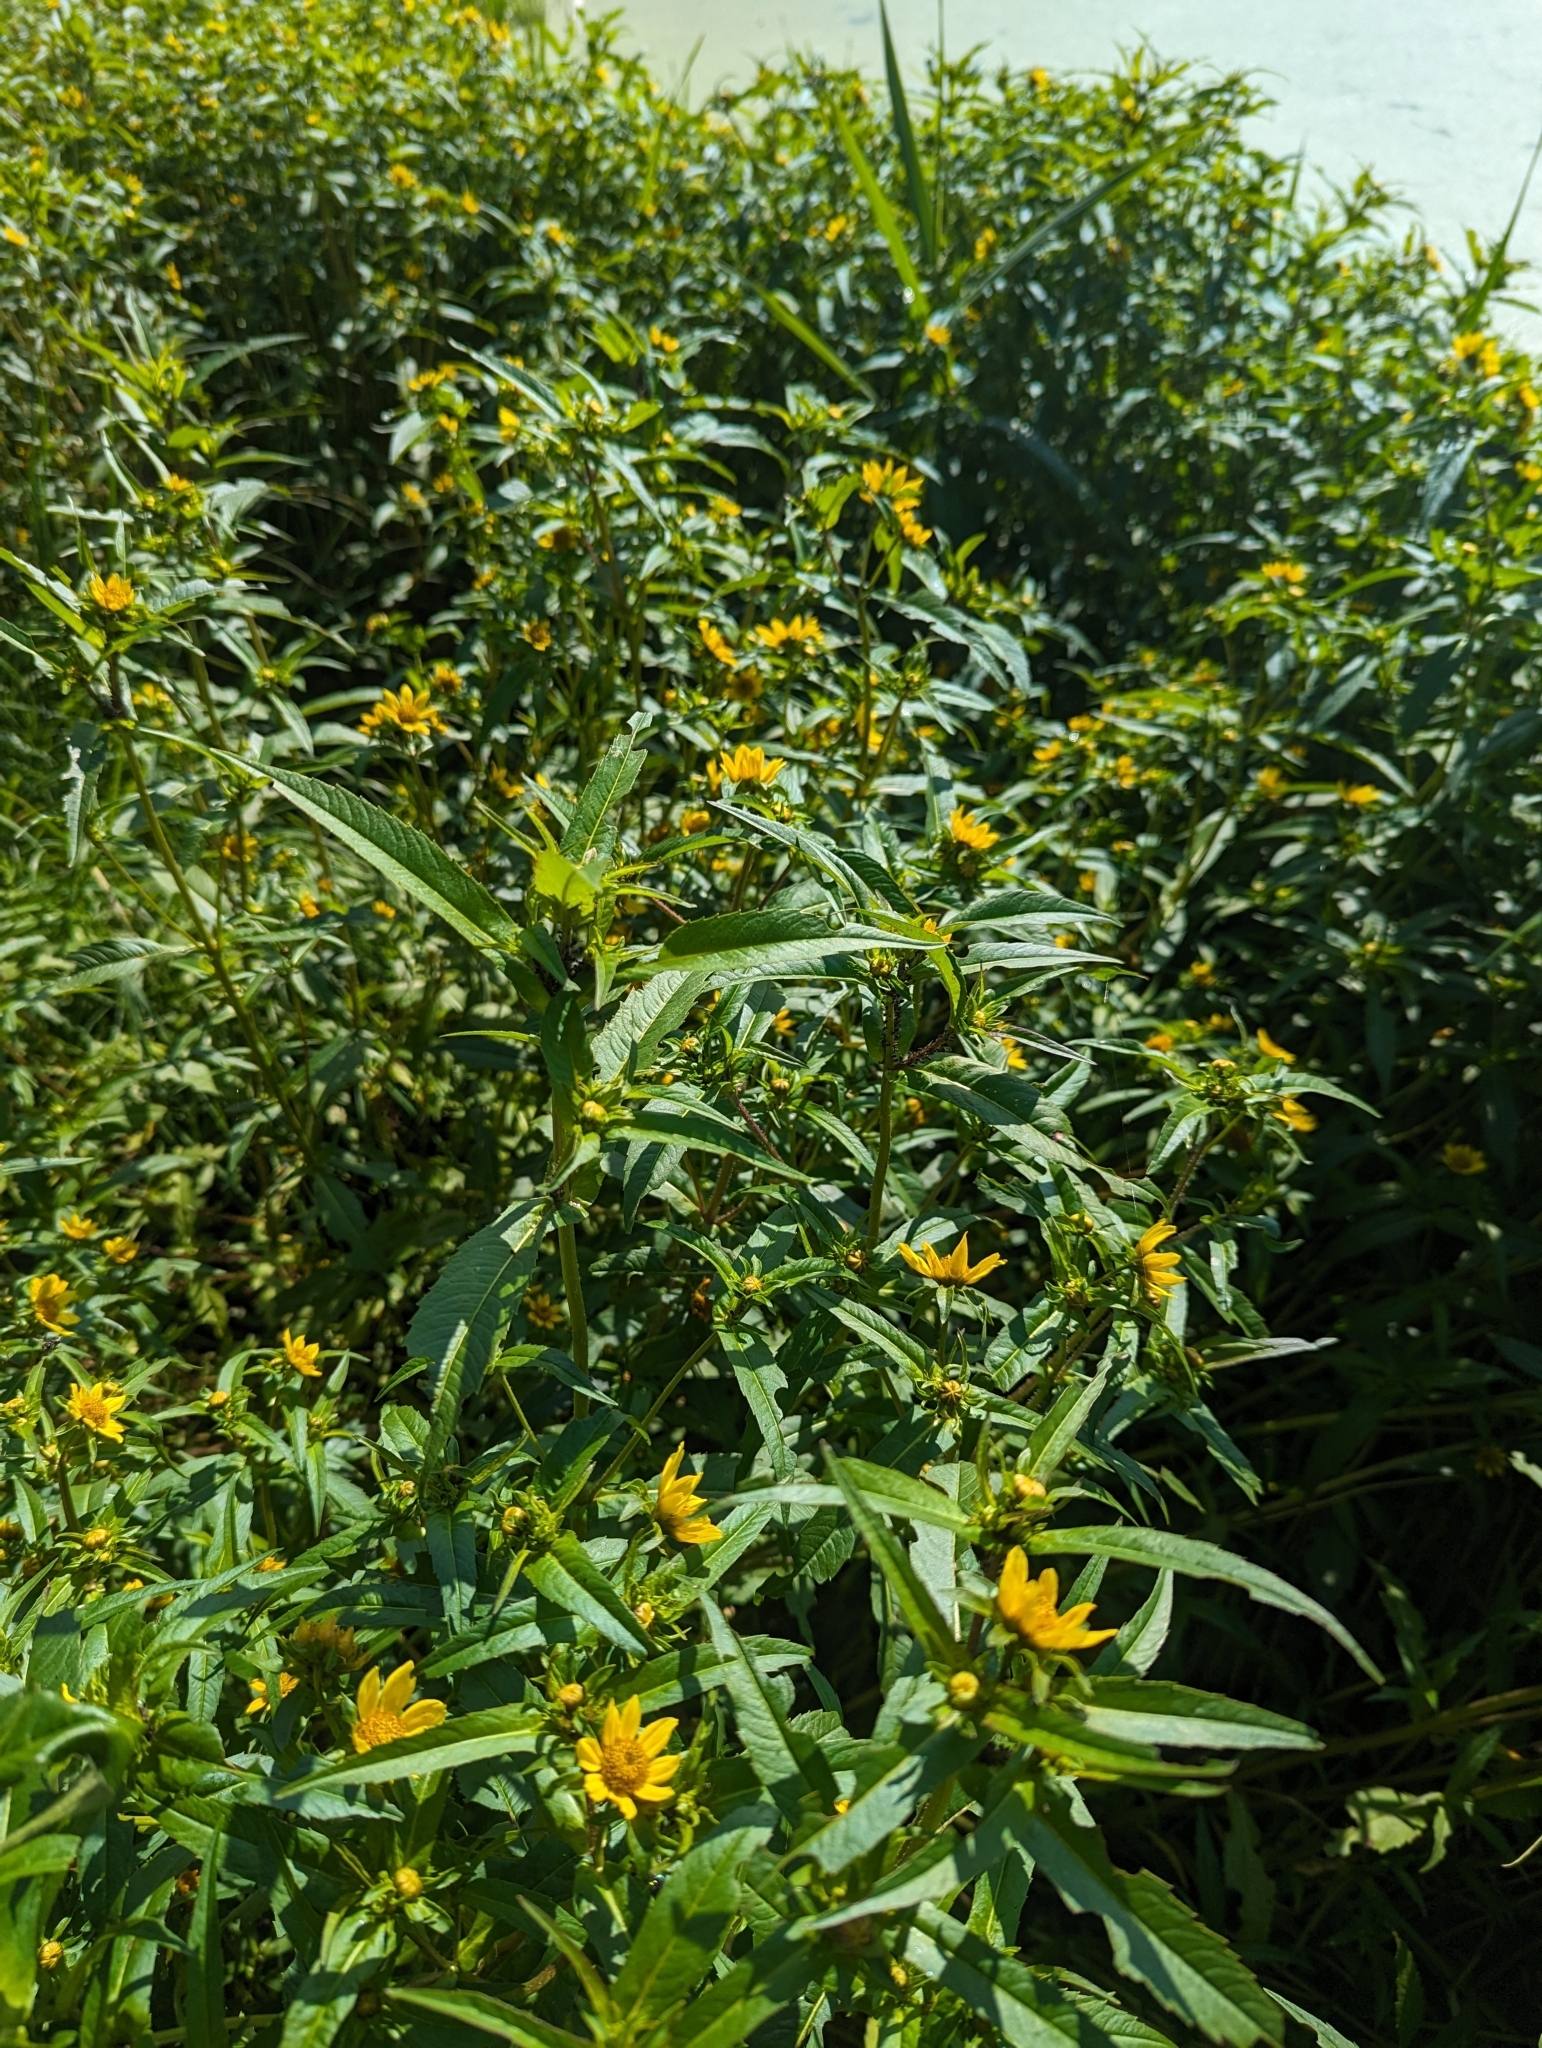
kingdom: Plantae
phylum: Tracheophyta
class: Magnoliopsida
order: Asterales
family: Asteraceae
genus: Bidens
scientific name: Bidens cernua
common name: Nodding bur-marigold
